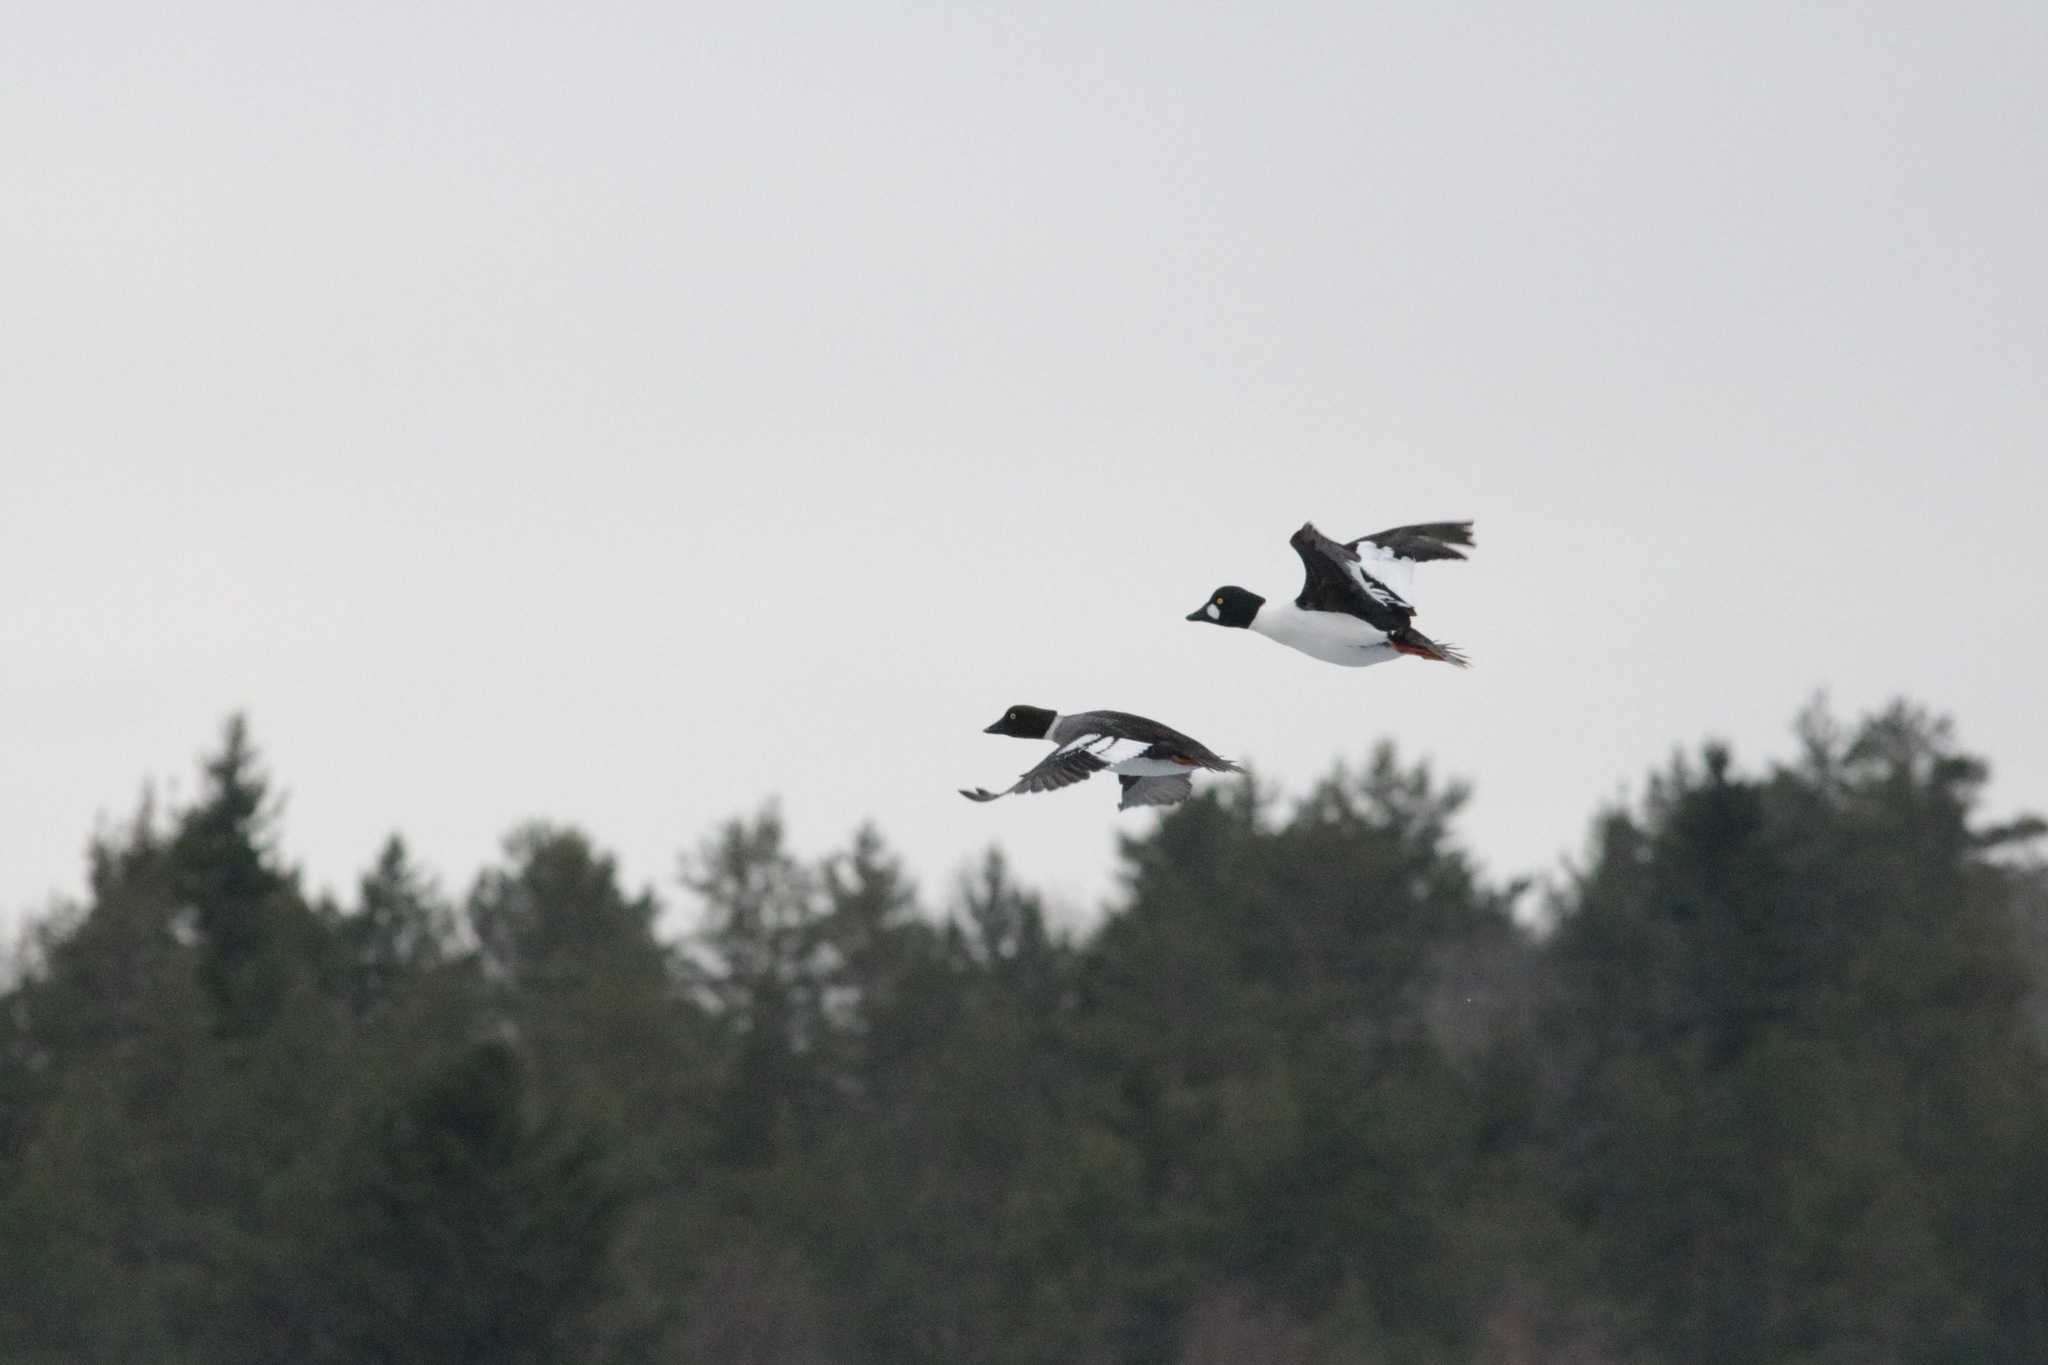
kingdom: Animalia
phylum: Chordata
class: Aves
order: Anseriformes
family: Anatidae
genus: Bucephala
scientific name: Bucephala clangula
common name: Common goldeneye
